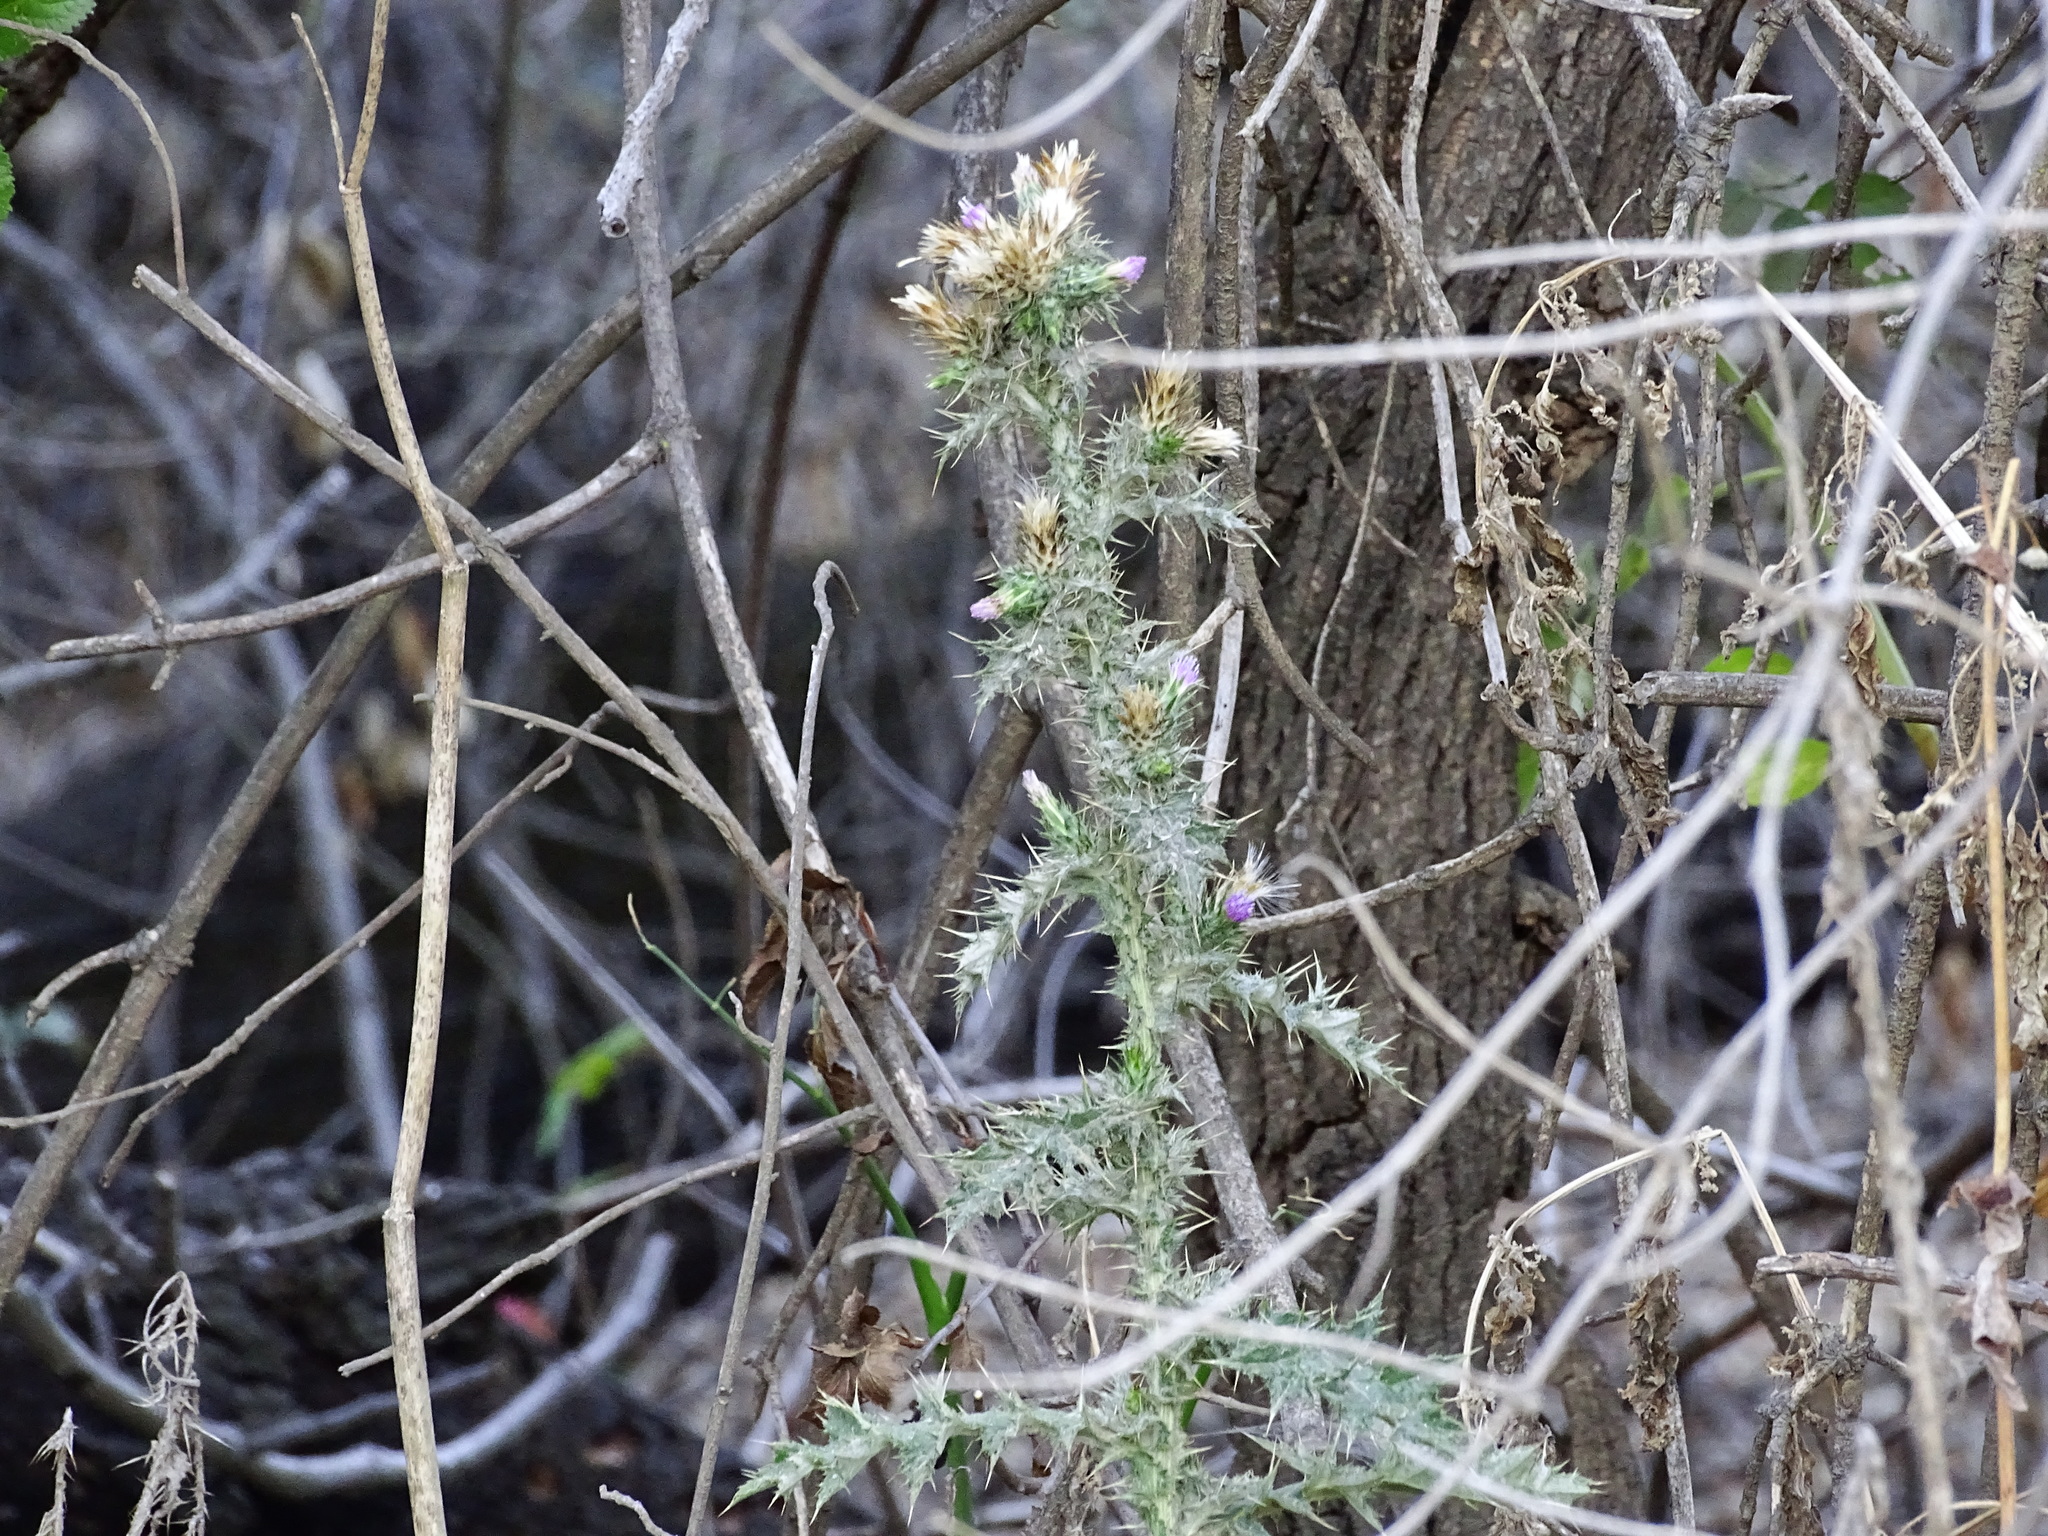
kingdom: Plantae
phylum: Tracheophyta
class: Magnoliopsida
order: Asterales
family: Asteraceae
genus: Carduus
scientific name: Carduus pycnocephalus
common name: Plymouth thistle
